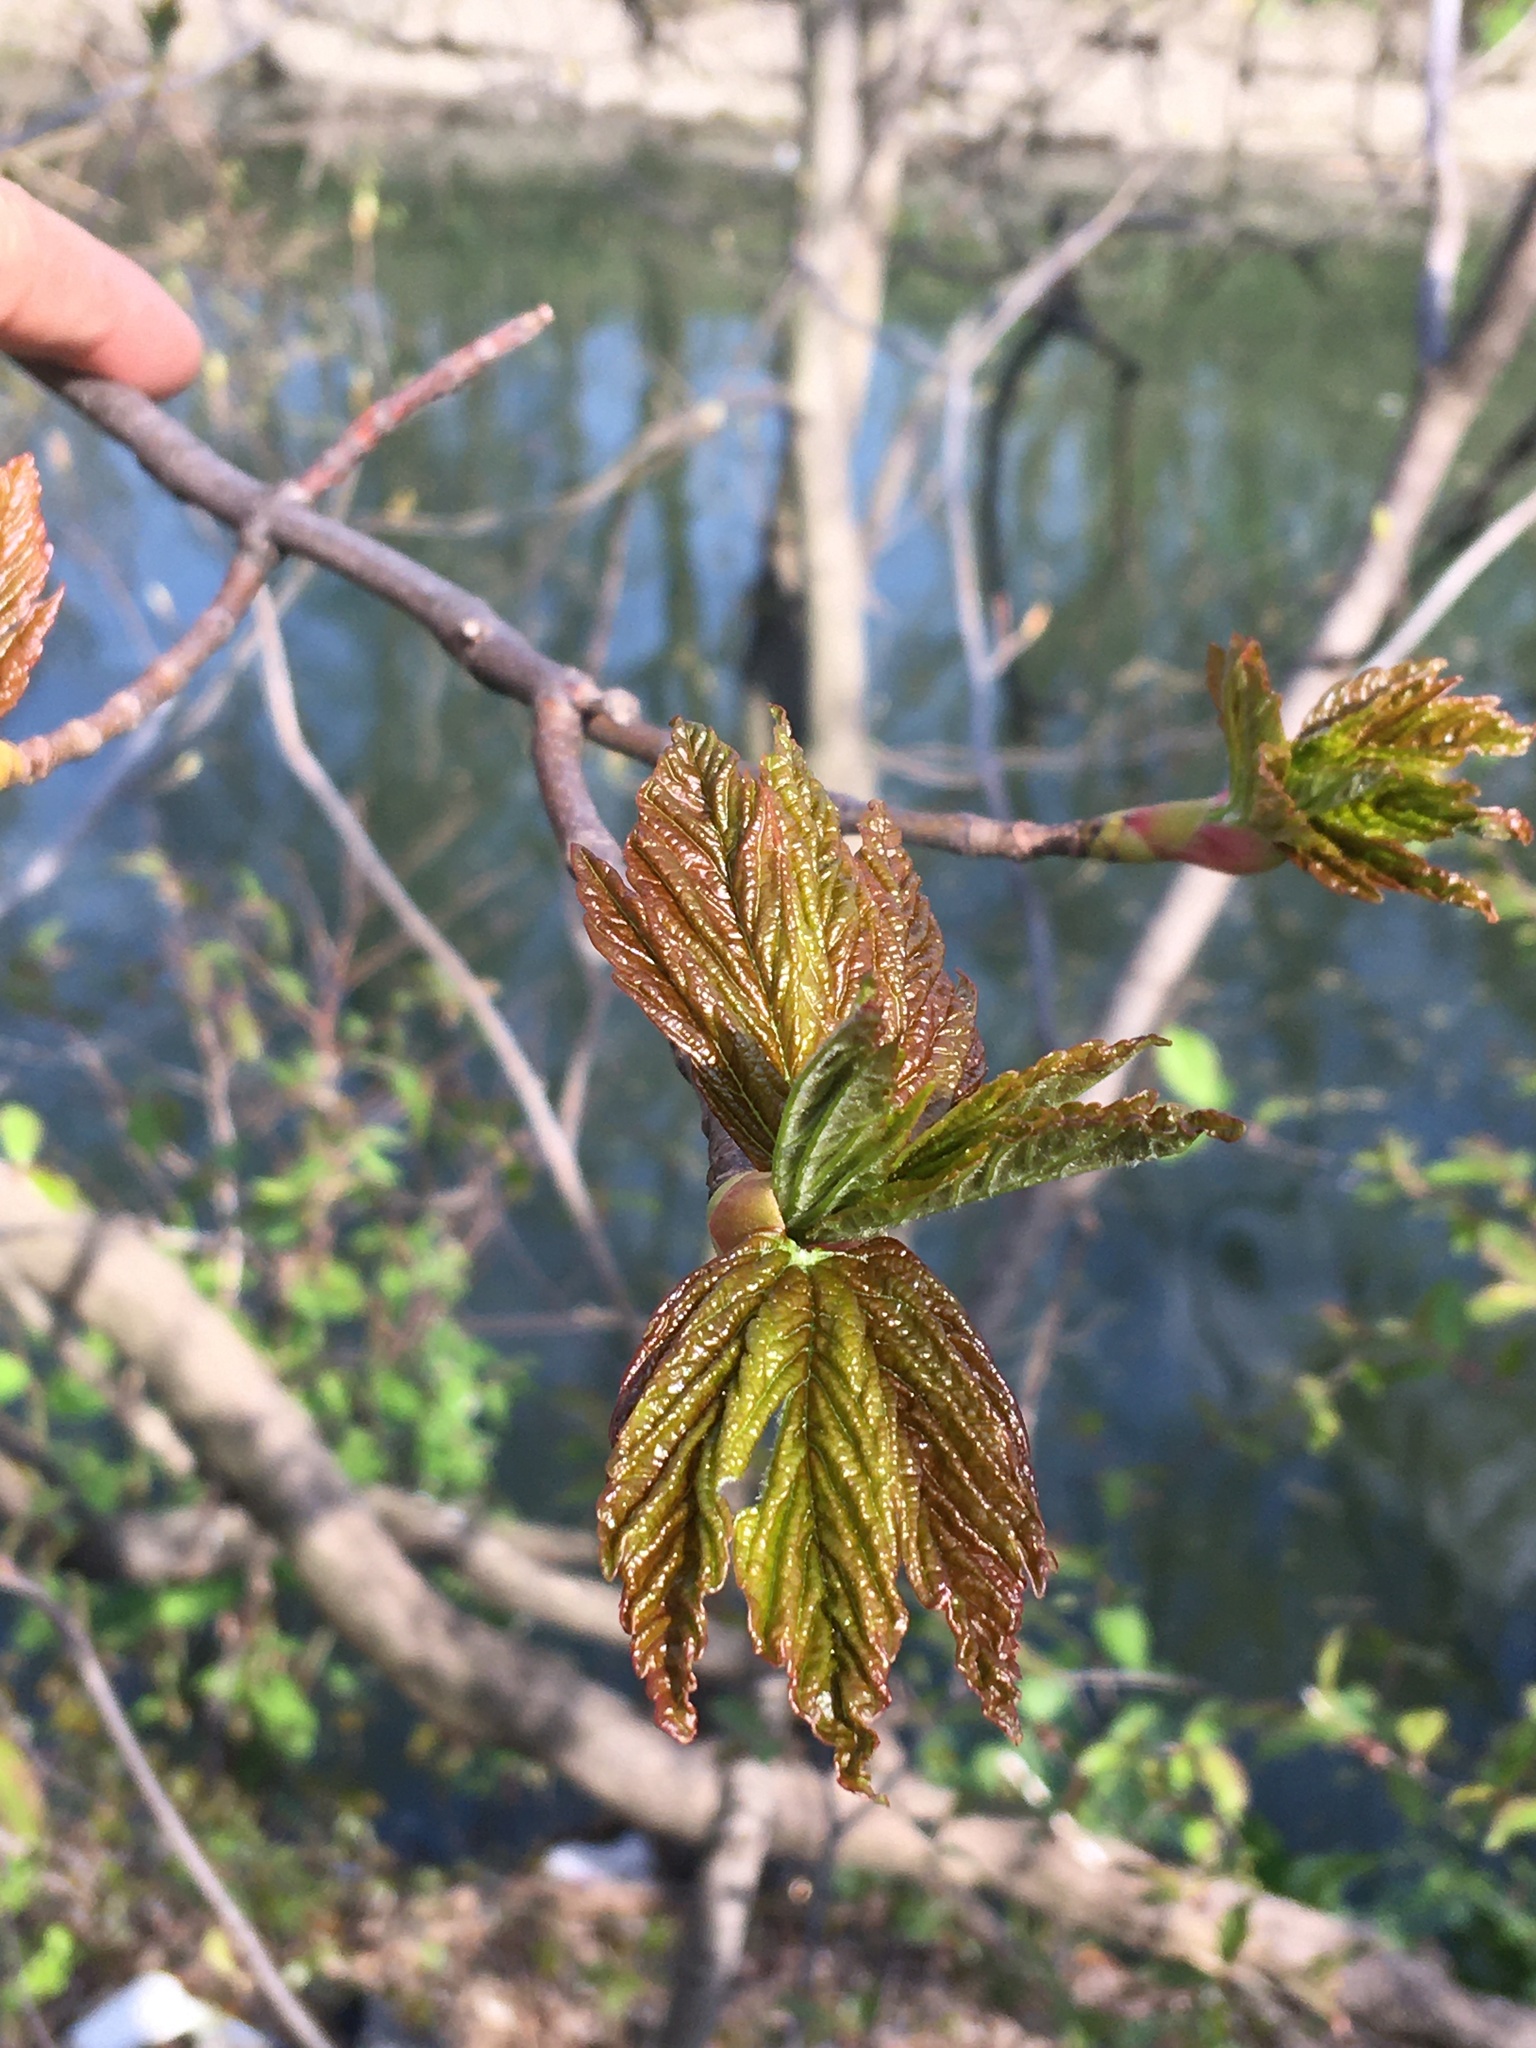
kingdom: Plantae
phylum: Tracheophyta
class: Magnoliopsida
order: Sapindales
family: Sapindaceae
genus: Acer
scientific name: Acer pseudoplatanus
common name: Sycamore
